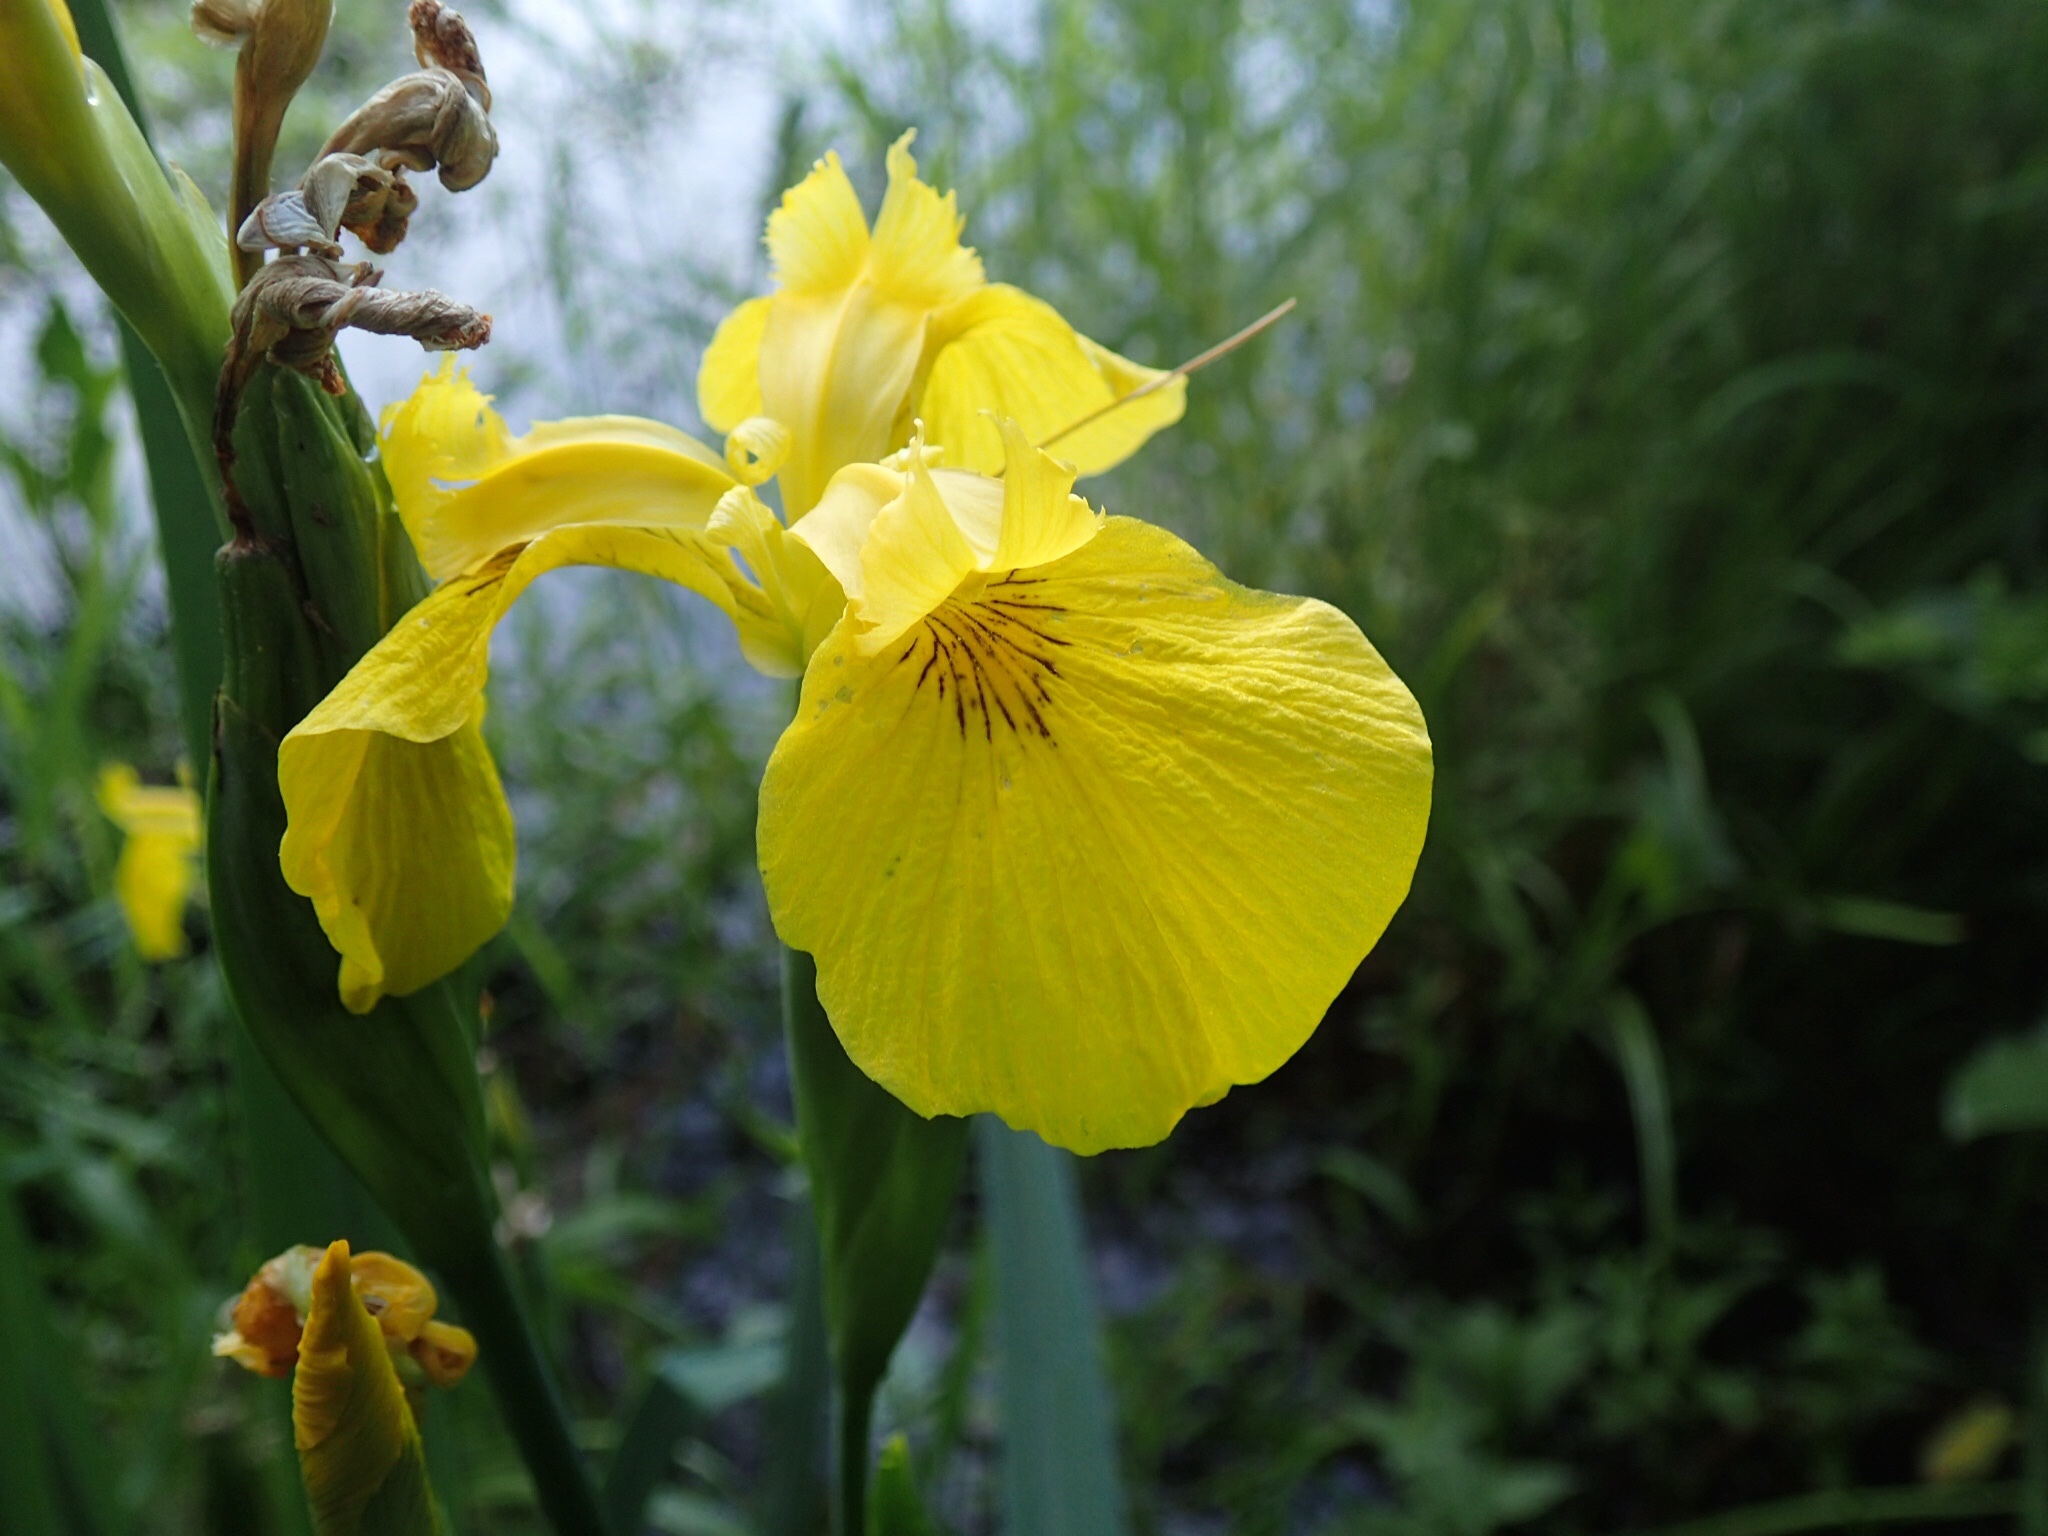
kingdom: Plantae
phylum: Tracheophyta
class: Liliopsida
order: Asparagales
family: Iridaceae
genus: Iris
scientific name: Iris pseudacorus
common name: Yellow flag
